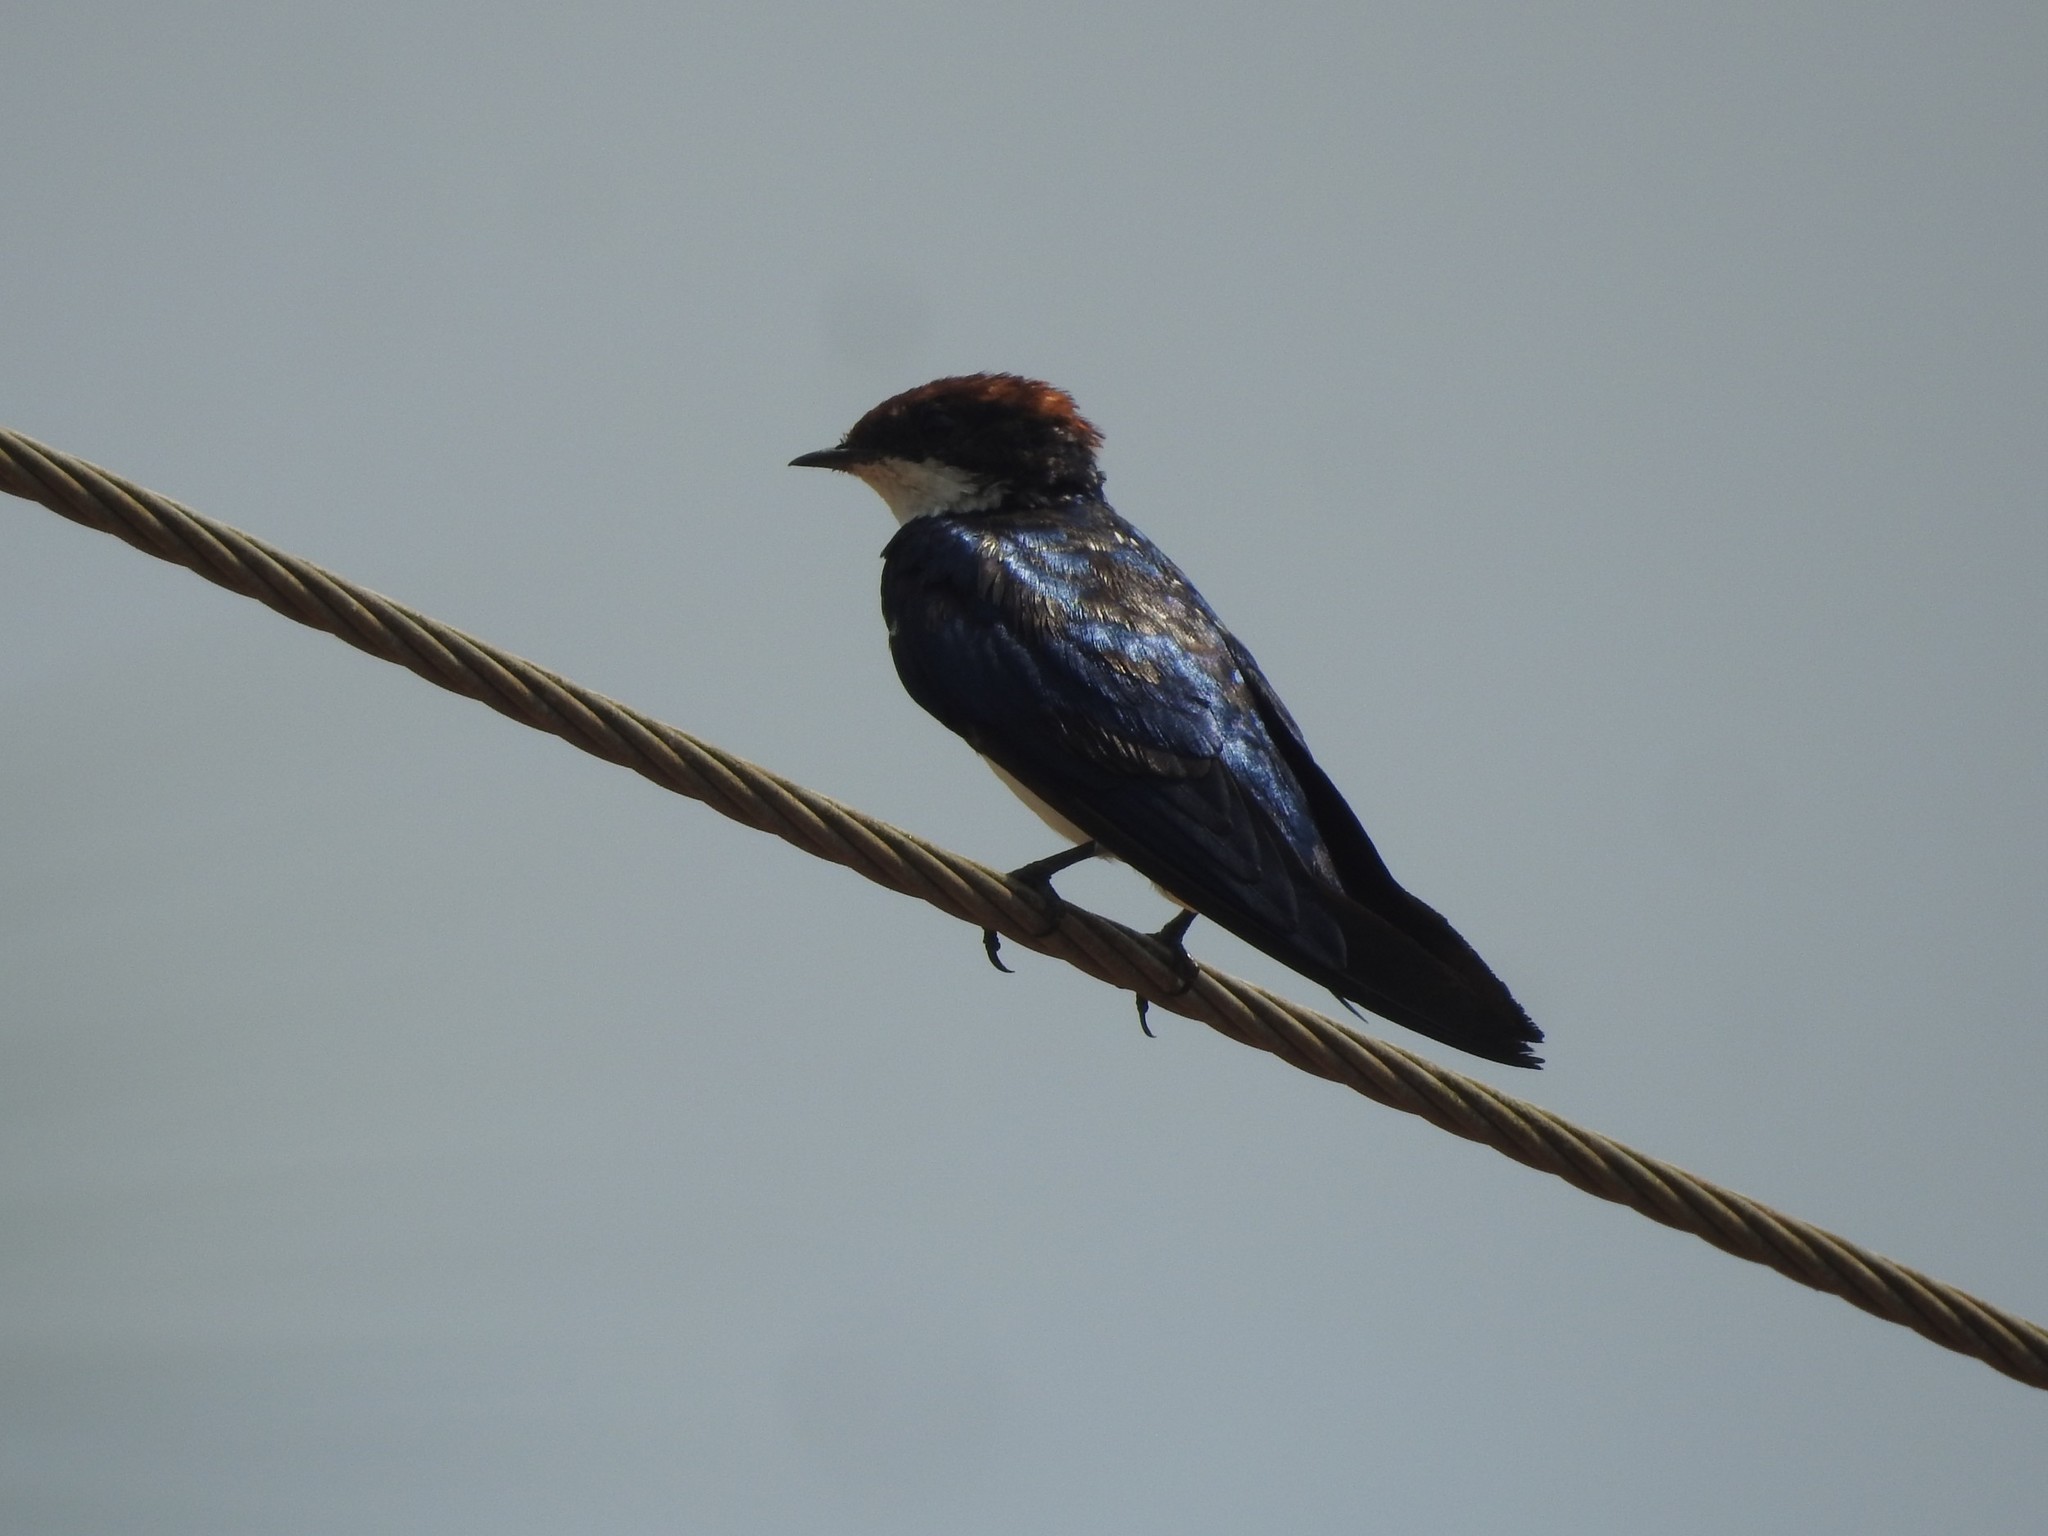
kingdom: Animalia
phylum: Chordata
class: Aves
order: Passeriformes
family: Hirundinidae
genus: Hirundo
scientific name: Hirundo smithii
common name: Wire-tailed swallow
